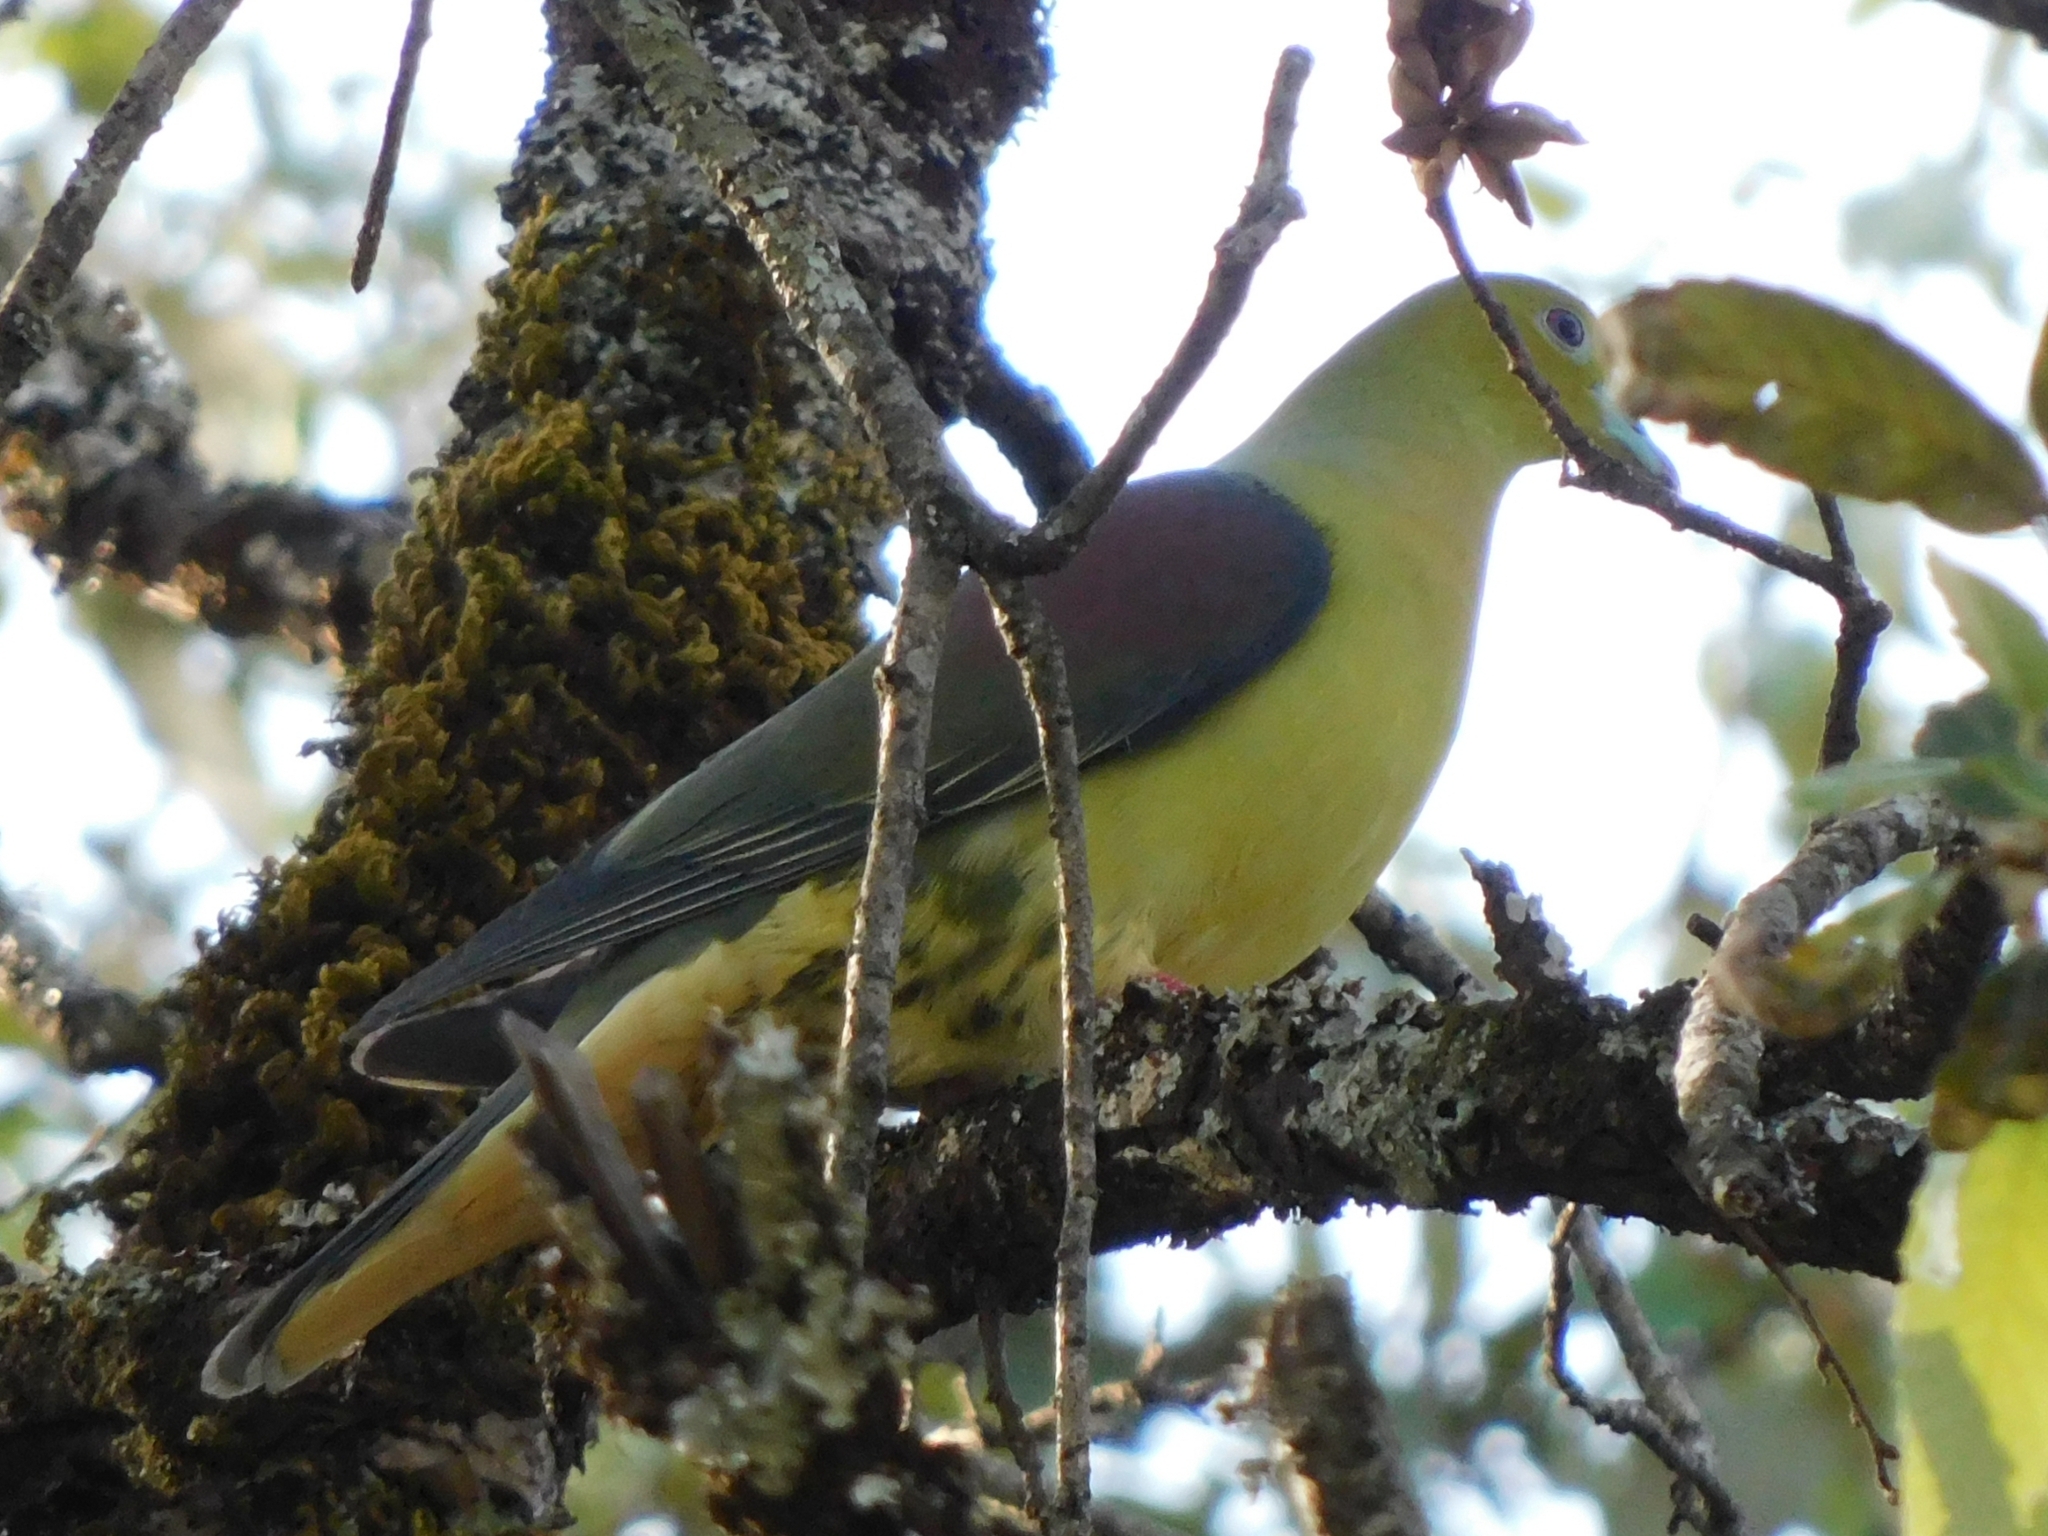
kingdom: Animalia
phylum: Chordata
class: Aves
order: Columbiformes
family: Columbidae
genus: Treron
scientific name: Treron sphenurus
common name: Wedge-tailed green pigeon
